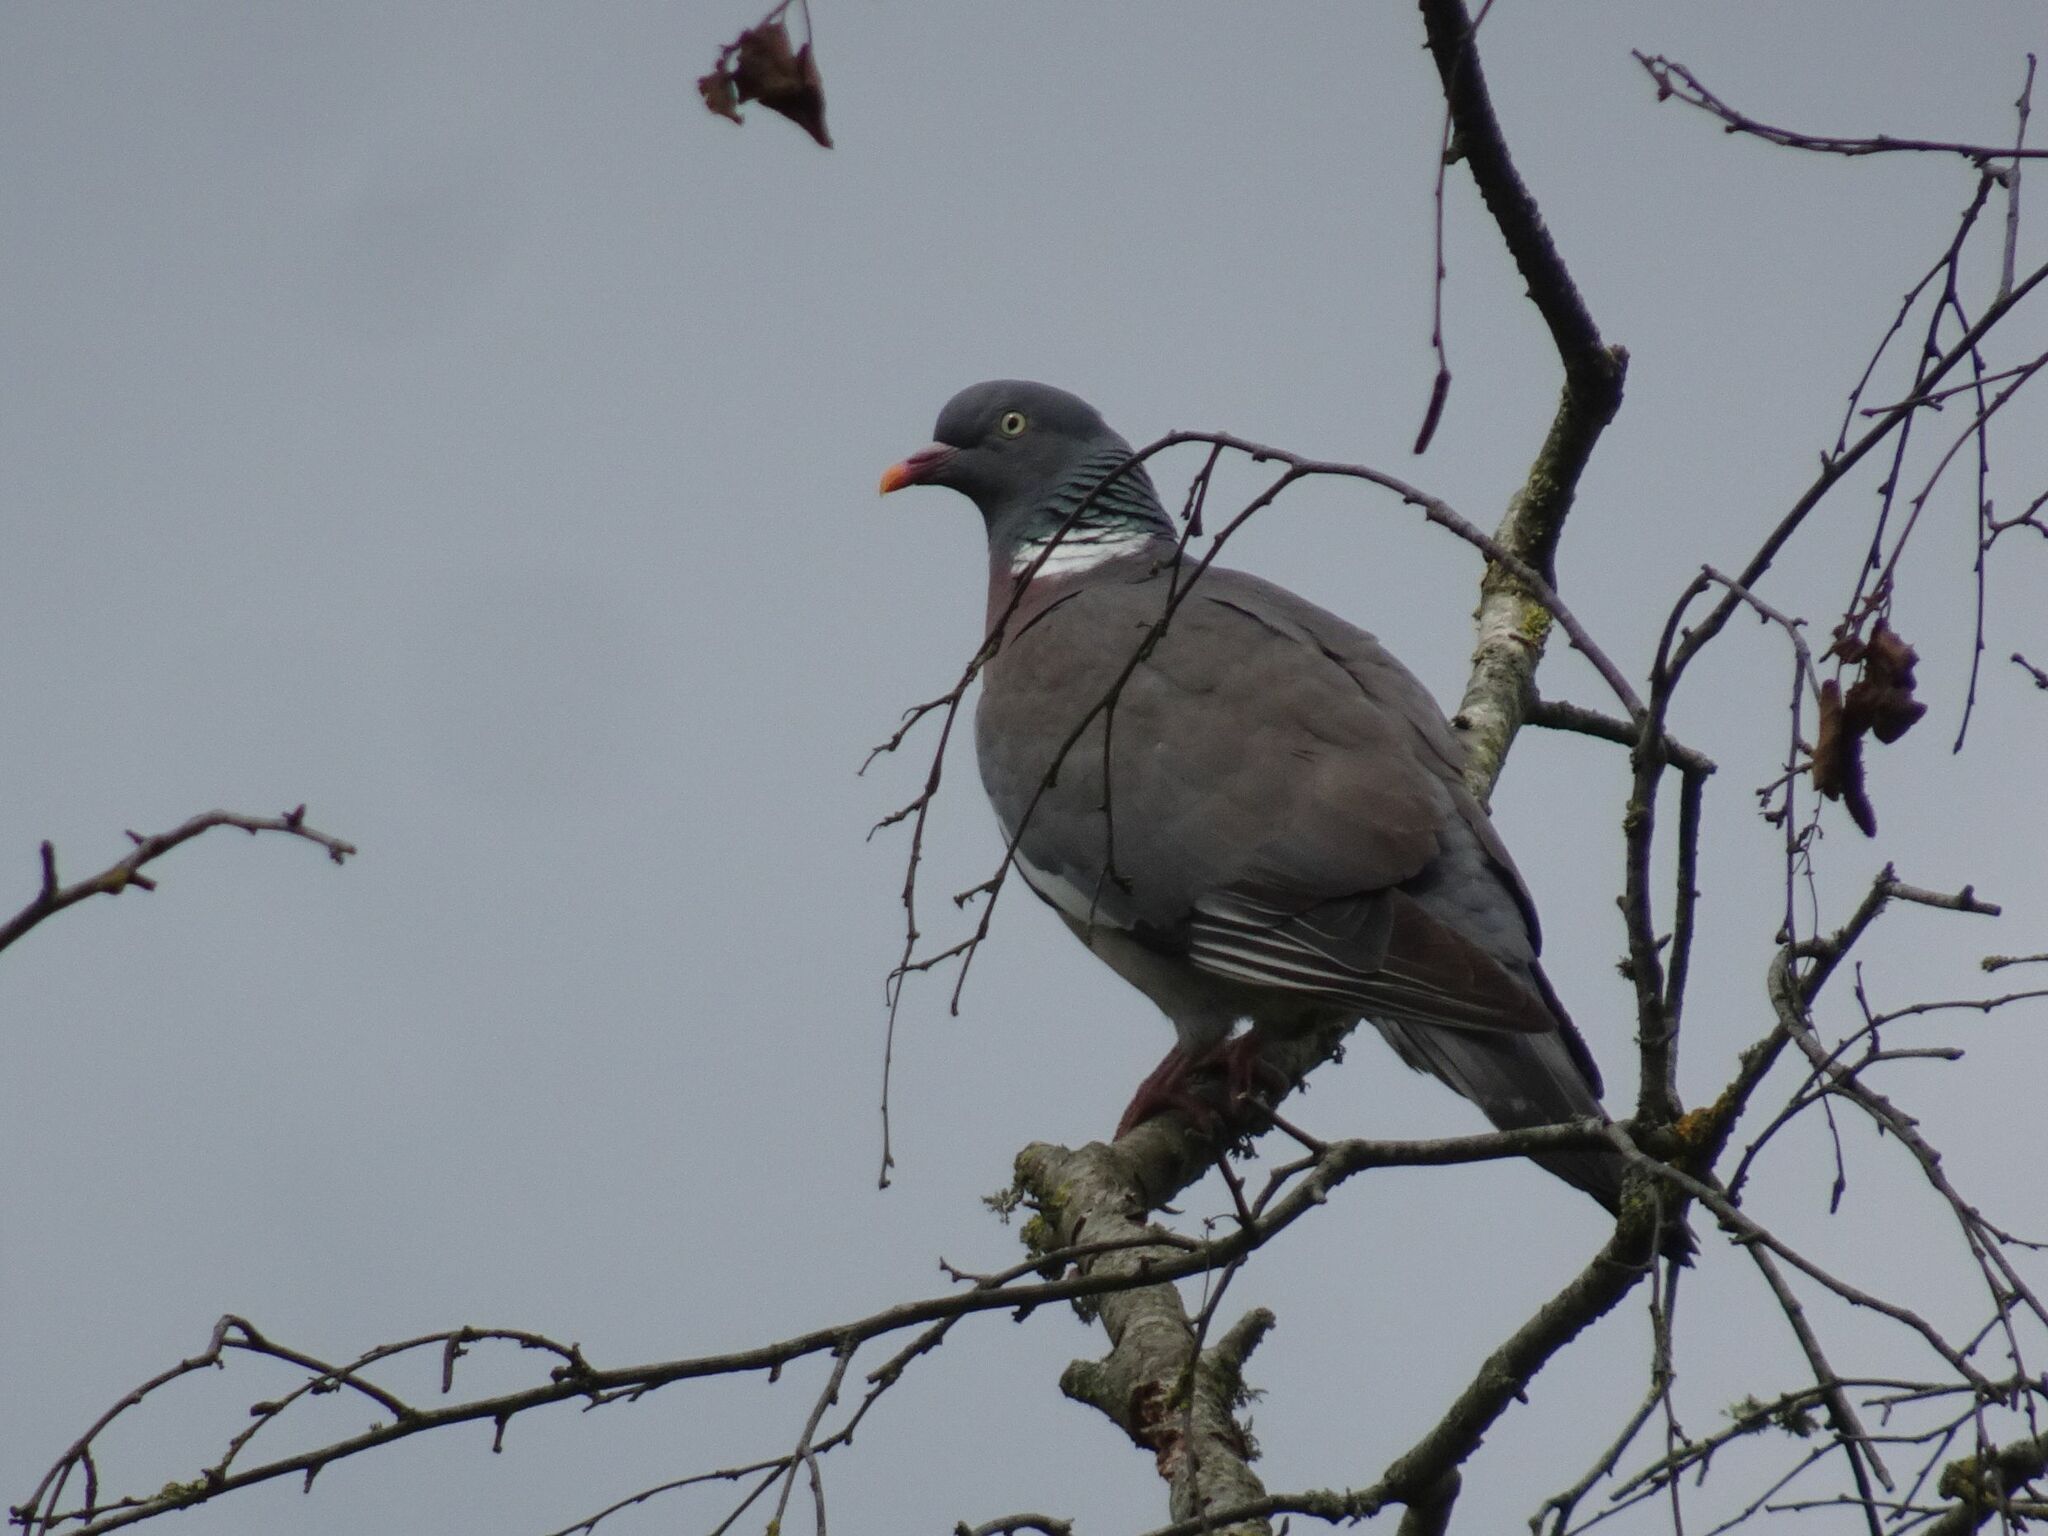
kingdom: Animalia
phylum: Chordata
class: Aves
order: Columbiformes
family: Columbidae
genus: Columba
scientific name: Columba palumbus
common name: Common wood pigeon
